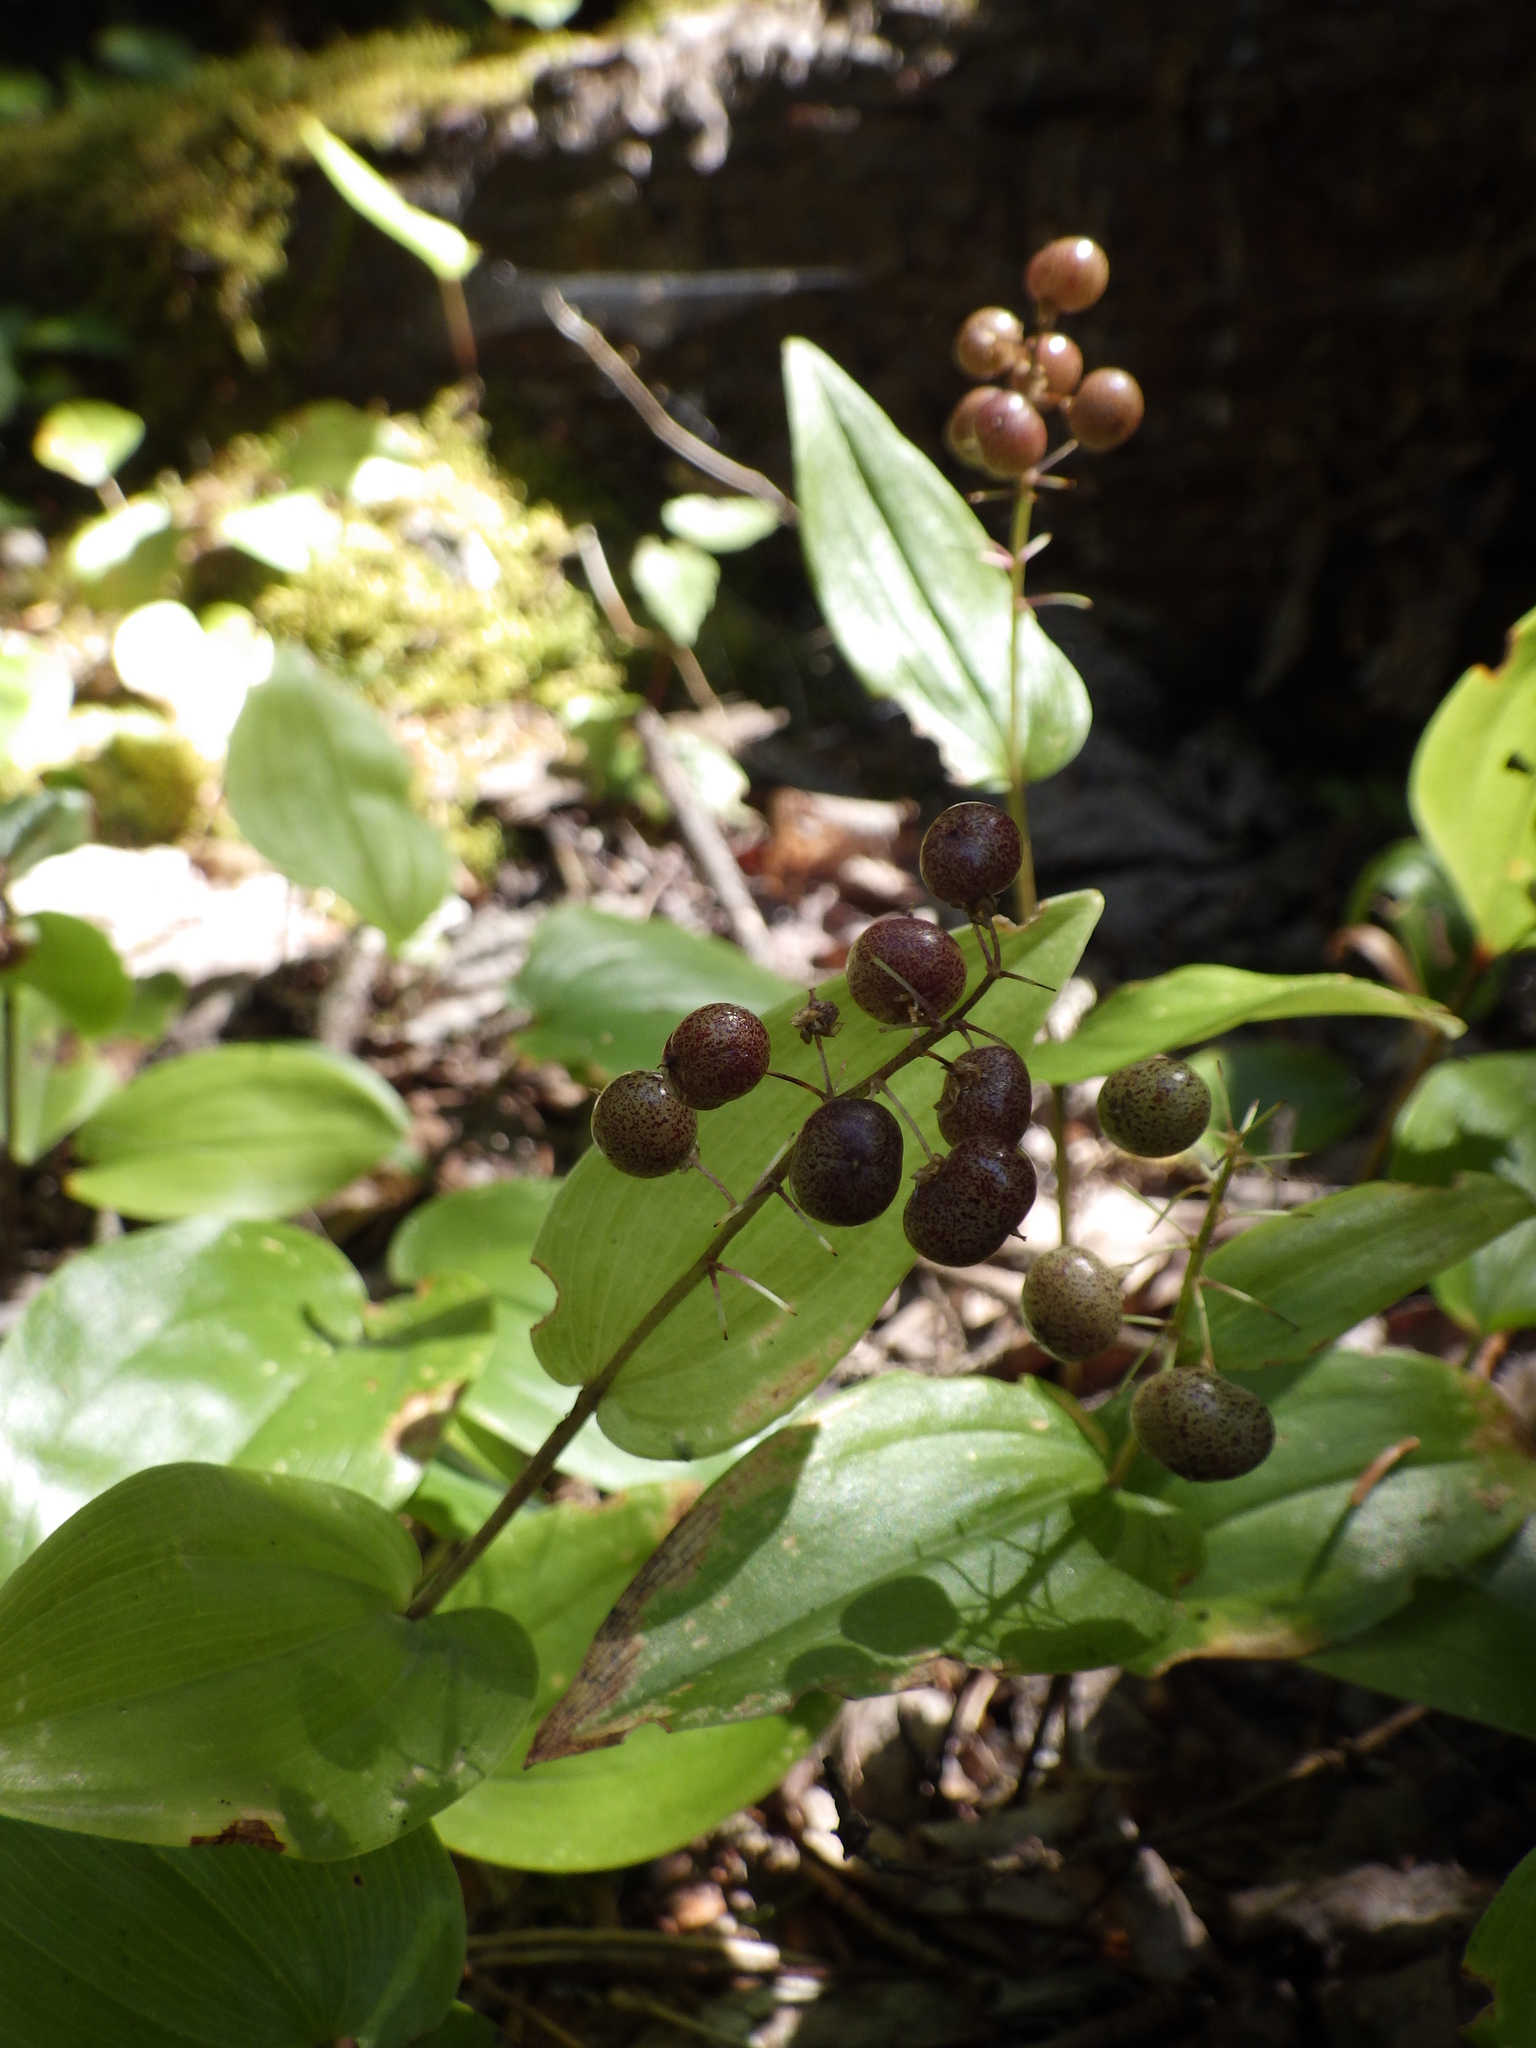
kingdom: Plantae
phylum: Tracheophyta
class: Liliopsida
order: Asparagales
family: Asparagaceae
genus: Maianthemum
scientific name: Maianthemum canadense
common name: False lily-of-the-valley
